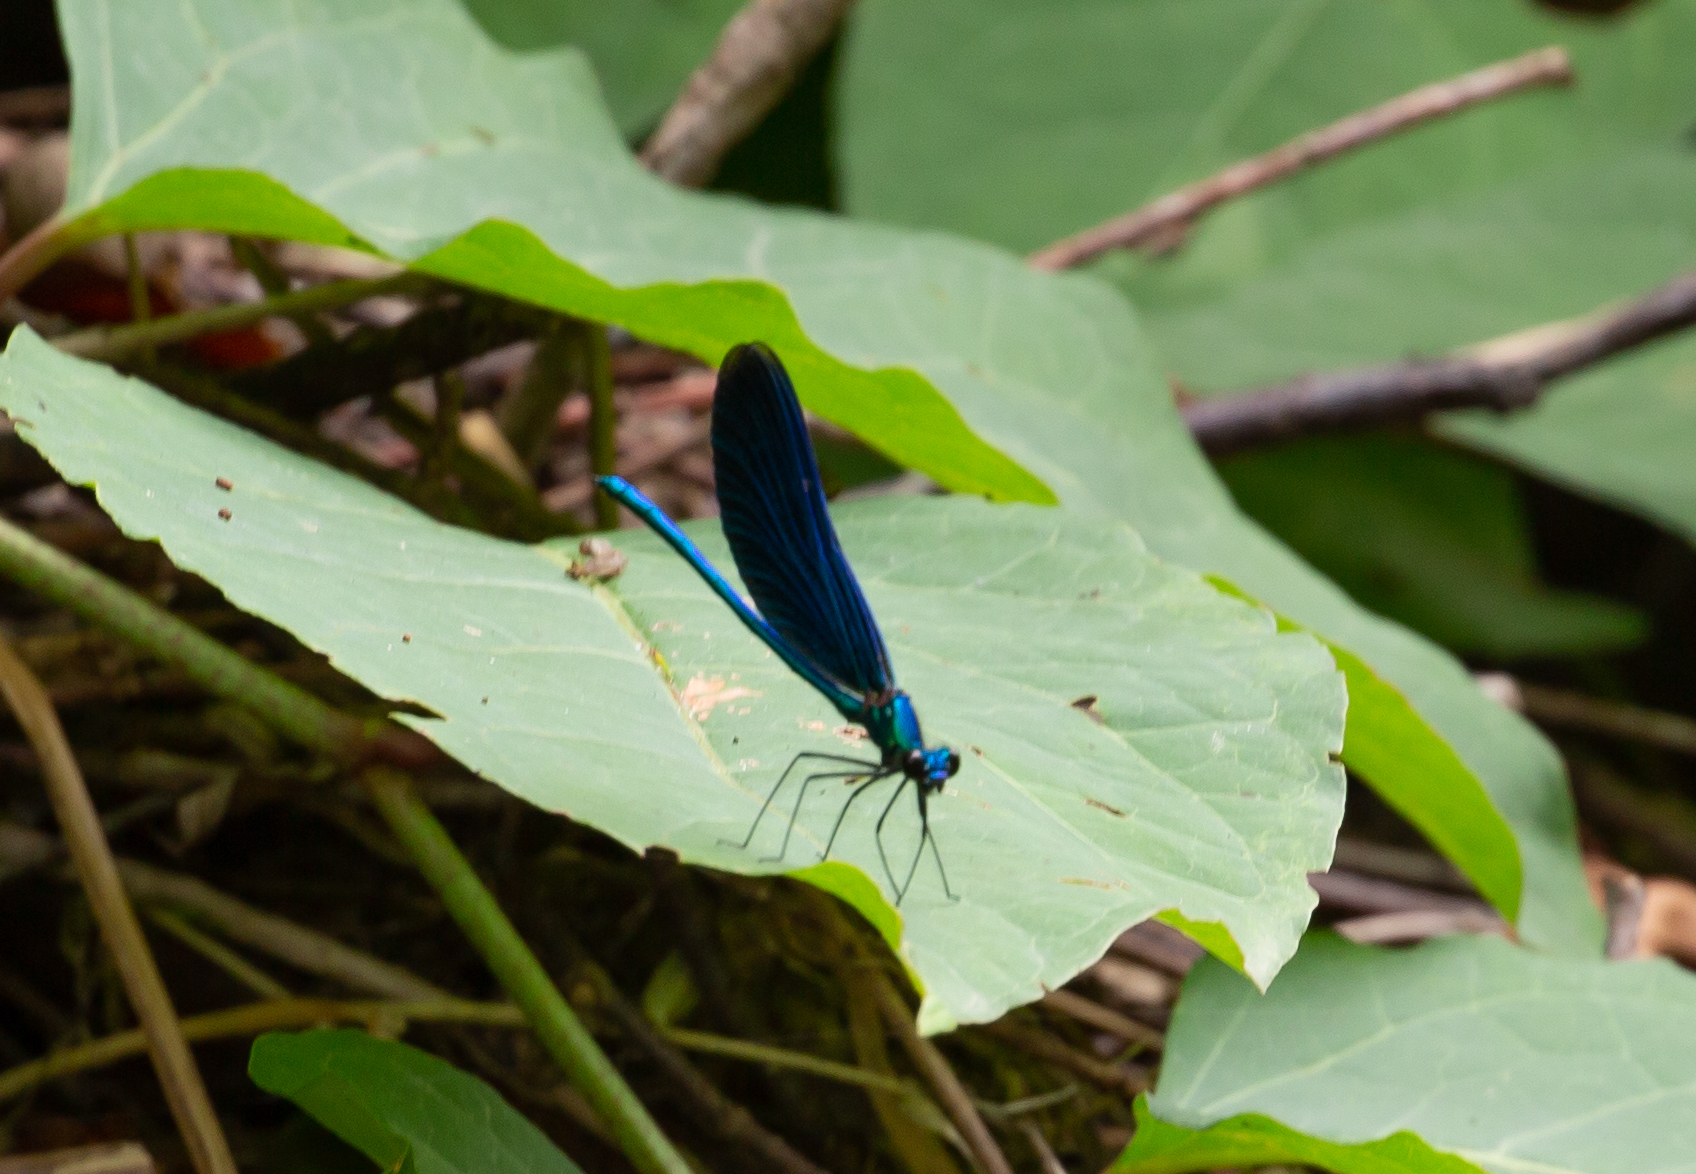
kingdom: Animalia
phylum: Arthropoda
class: Insecta
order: Odonata
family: Calopterygidae
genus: Calopteryx
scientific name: Calopteryx virgo
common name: Beautiful demoiselle
